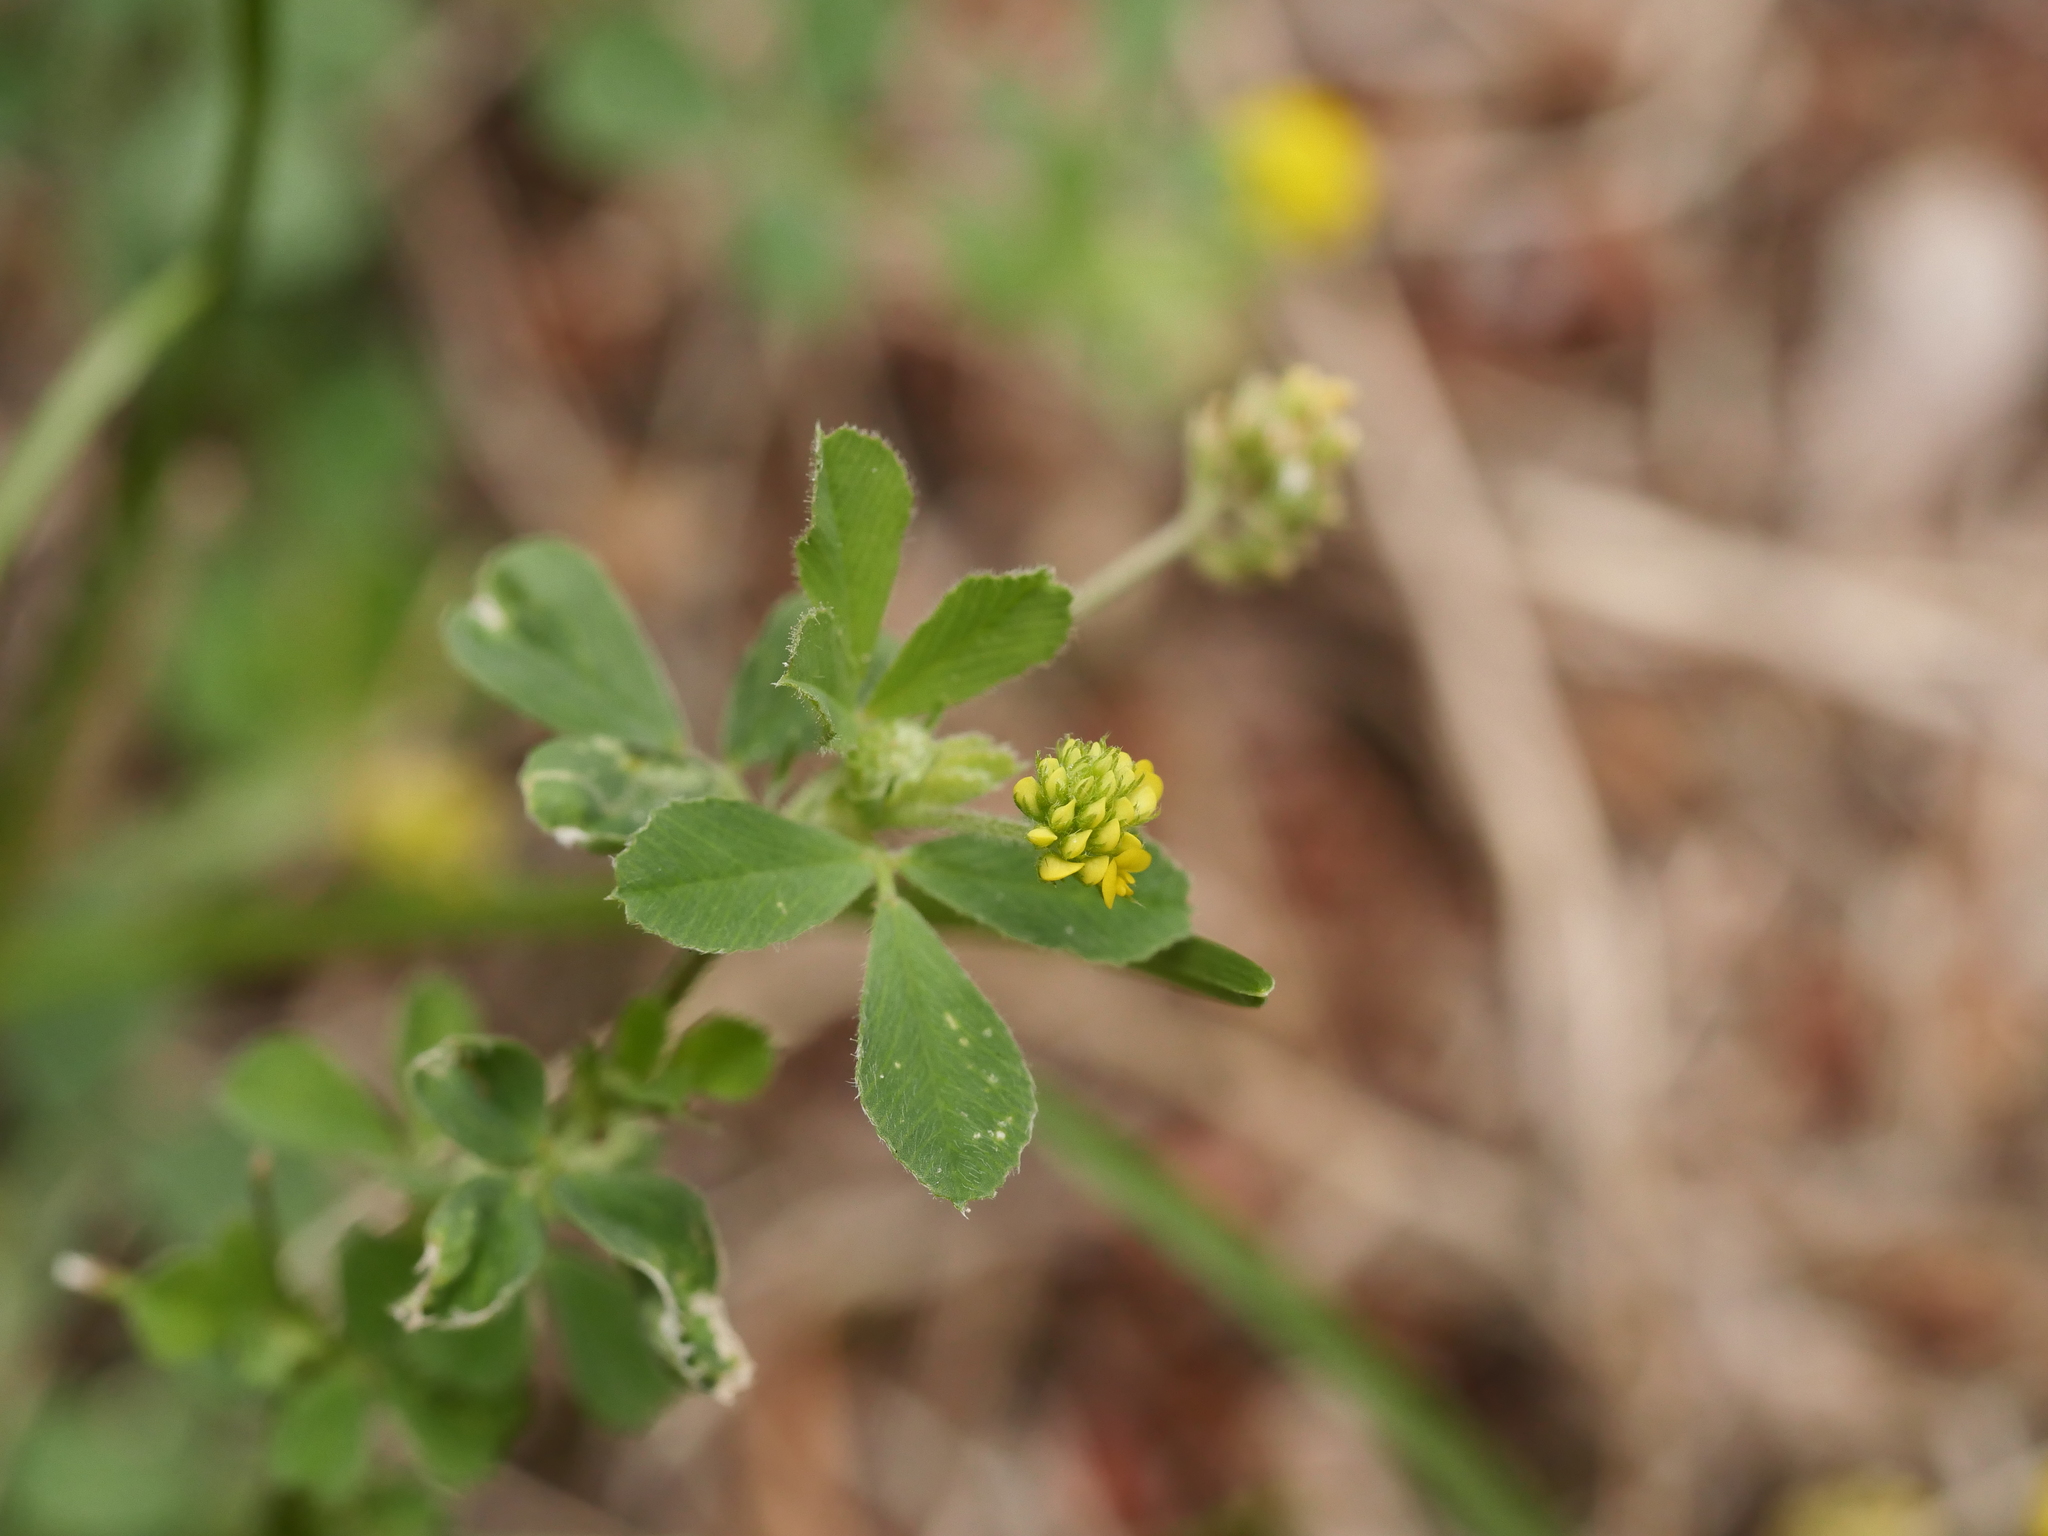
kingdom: Plantae
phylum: Tracheophyta
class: Magnoliopsida
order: Fabales
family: Fabaceae
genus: Medicago
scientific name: Medicago lupulina
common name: Black medick
